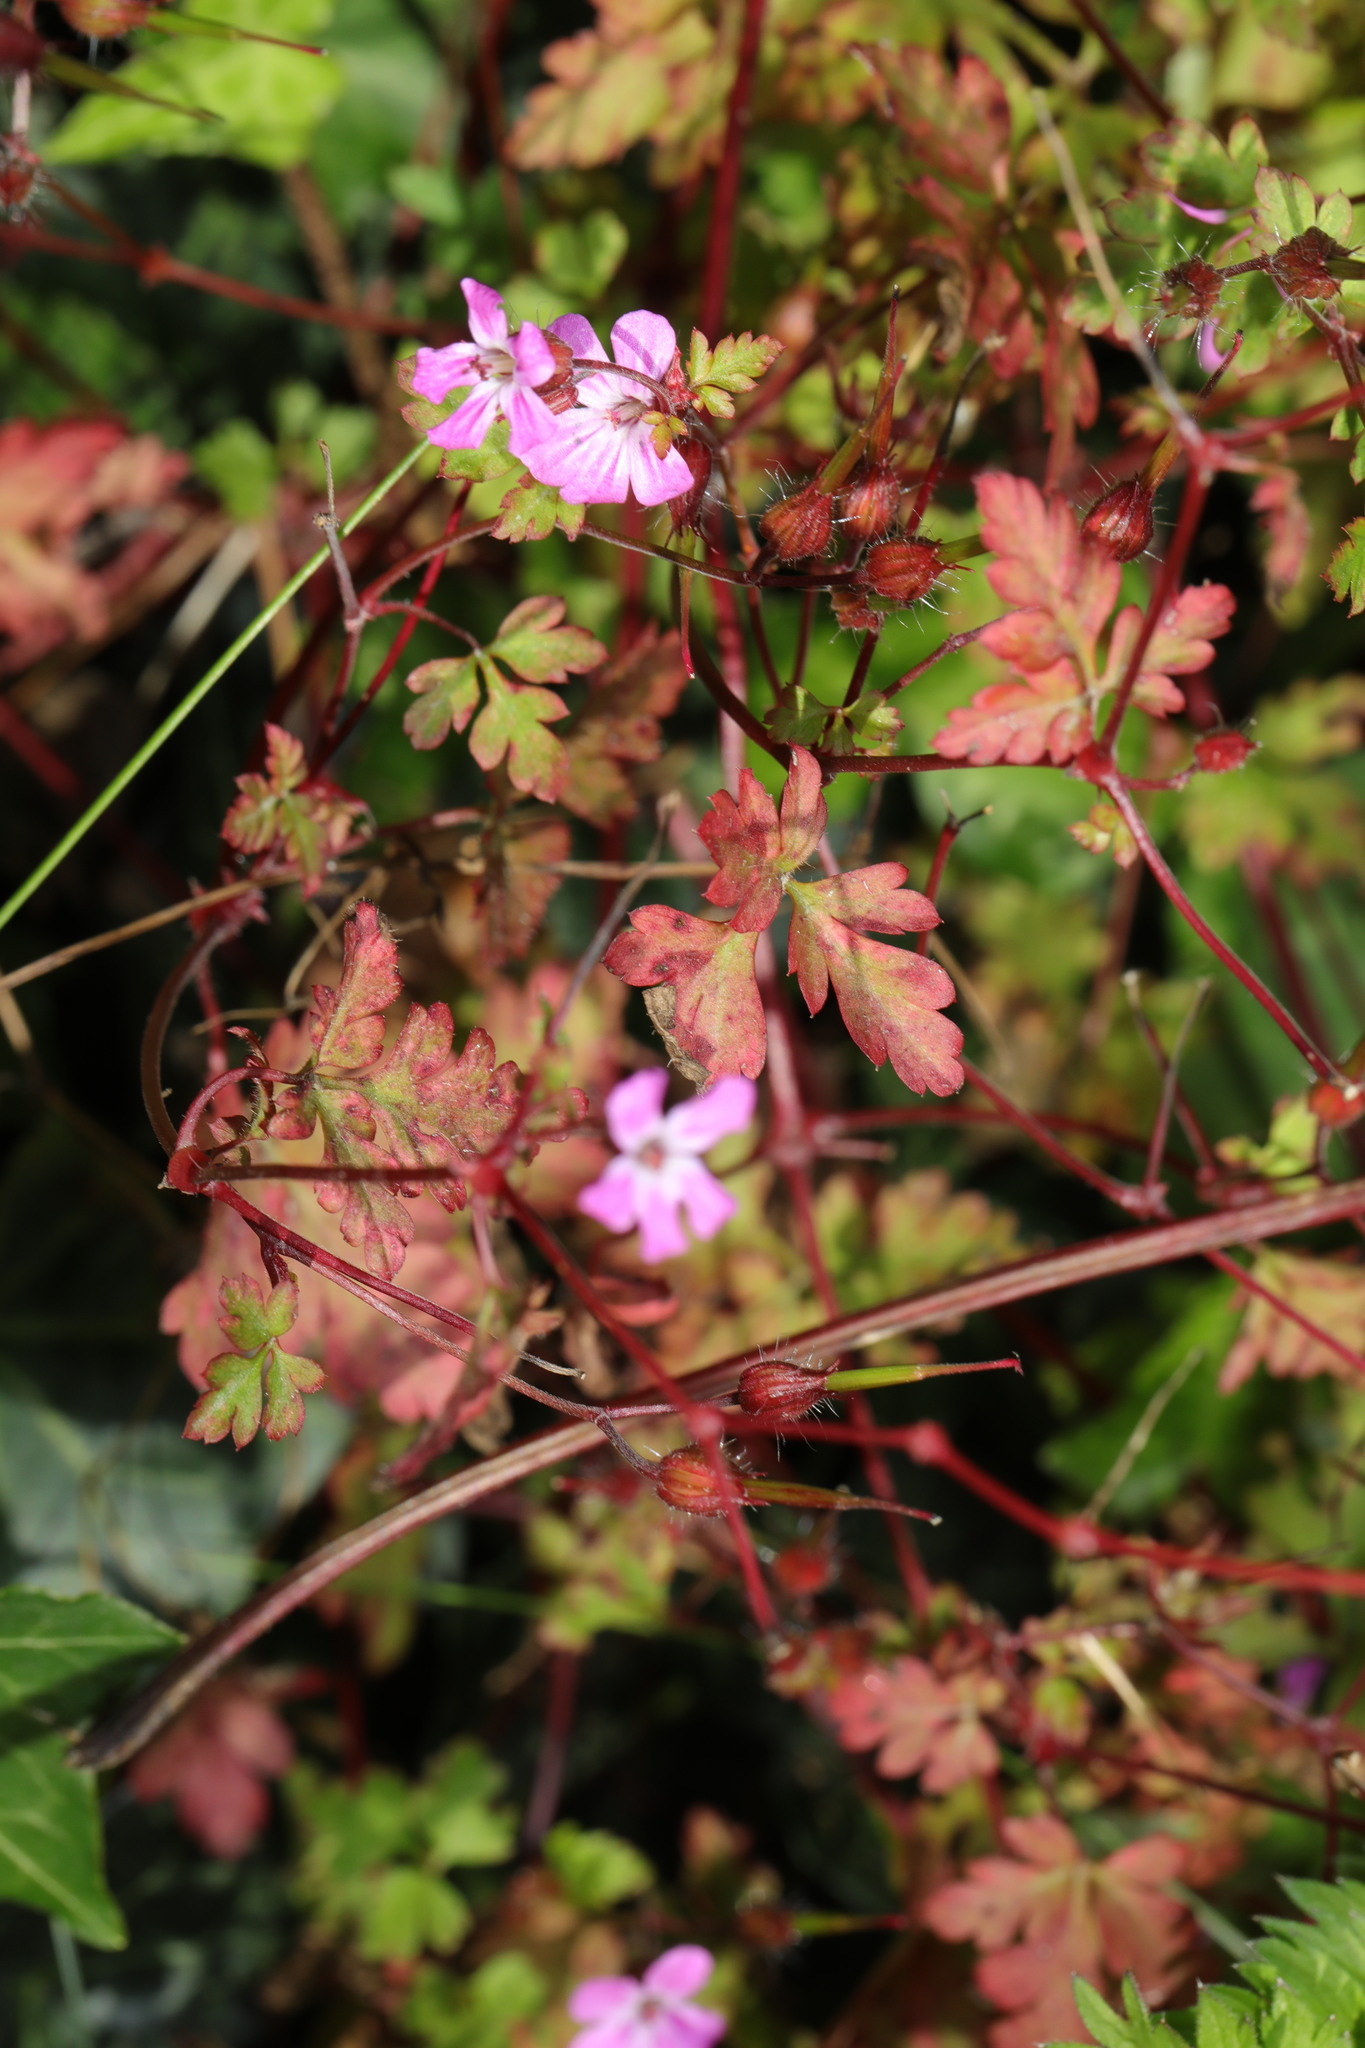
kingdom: Plantae
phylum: Tracheophyta
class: Magnoliopsida
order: Geraniales
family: Geraniaceae
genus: Geranium
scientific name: Geranium robertianum
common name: Herb-robert
